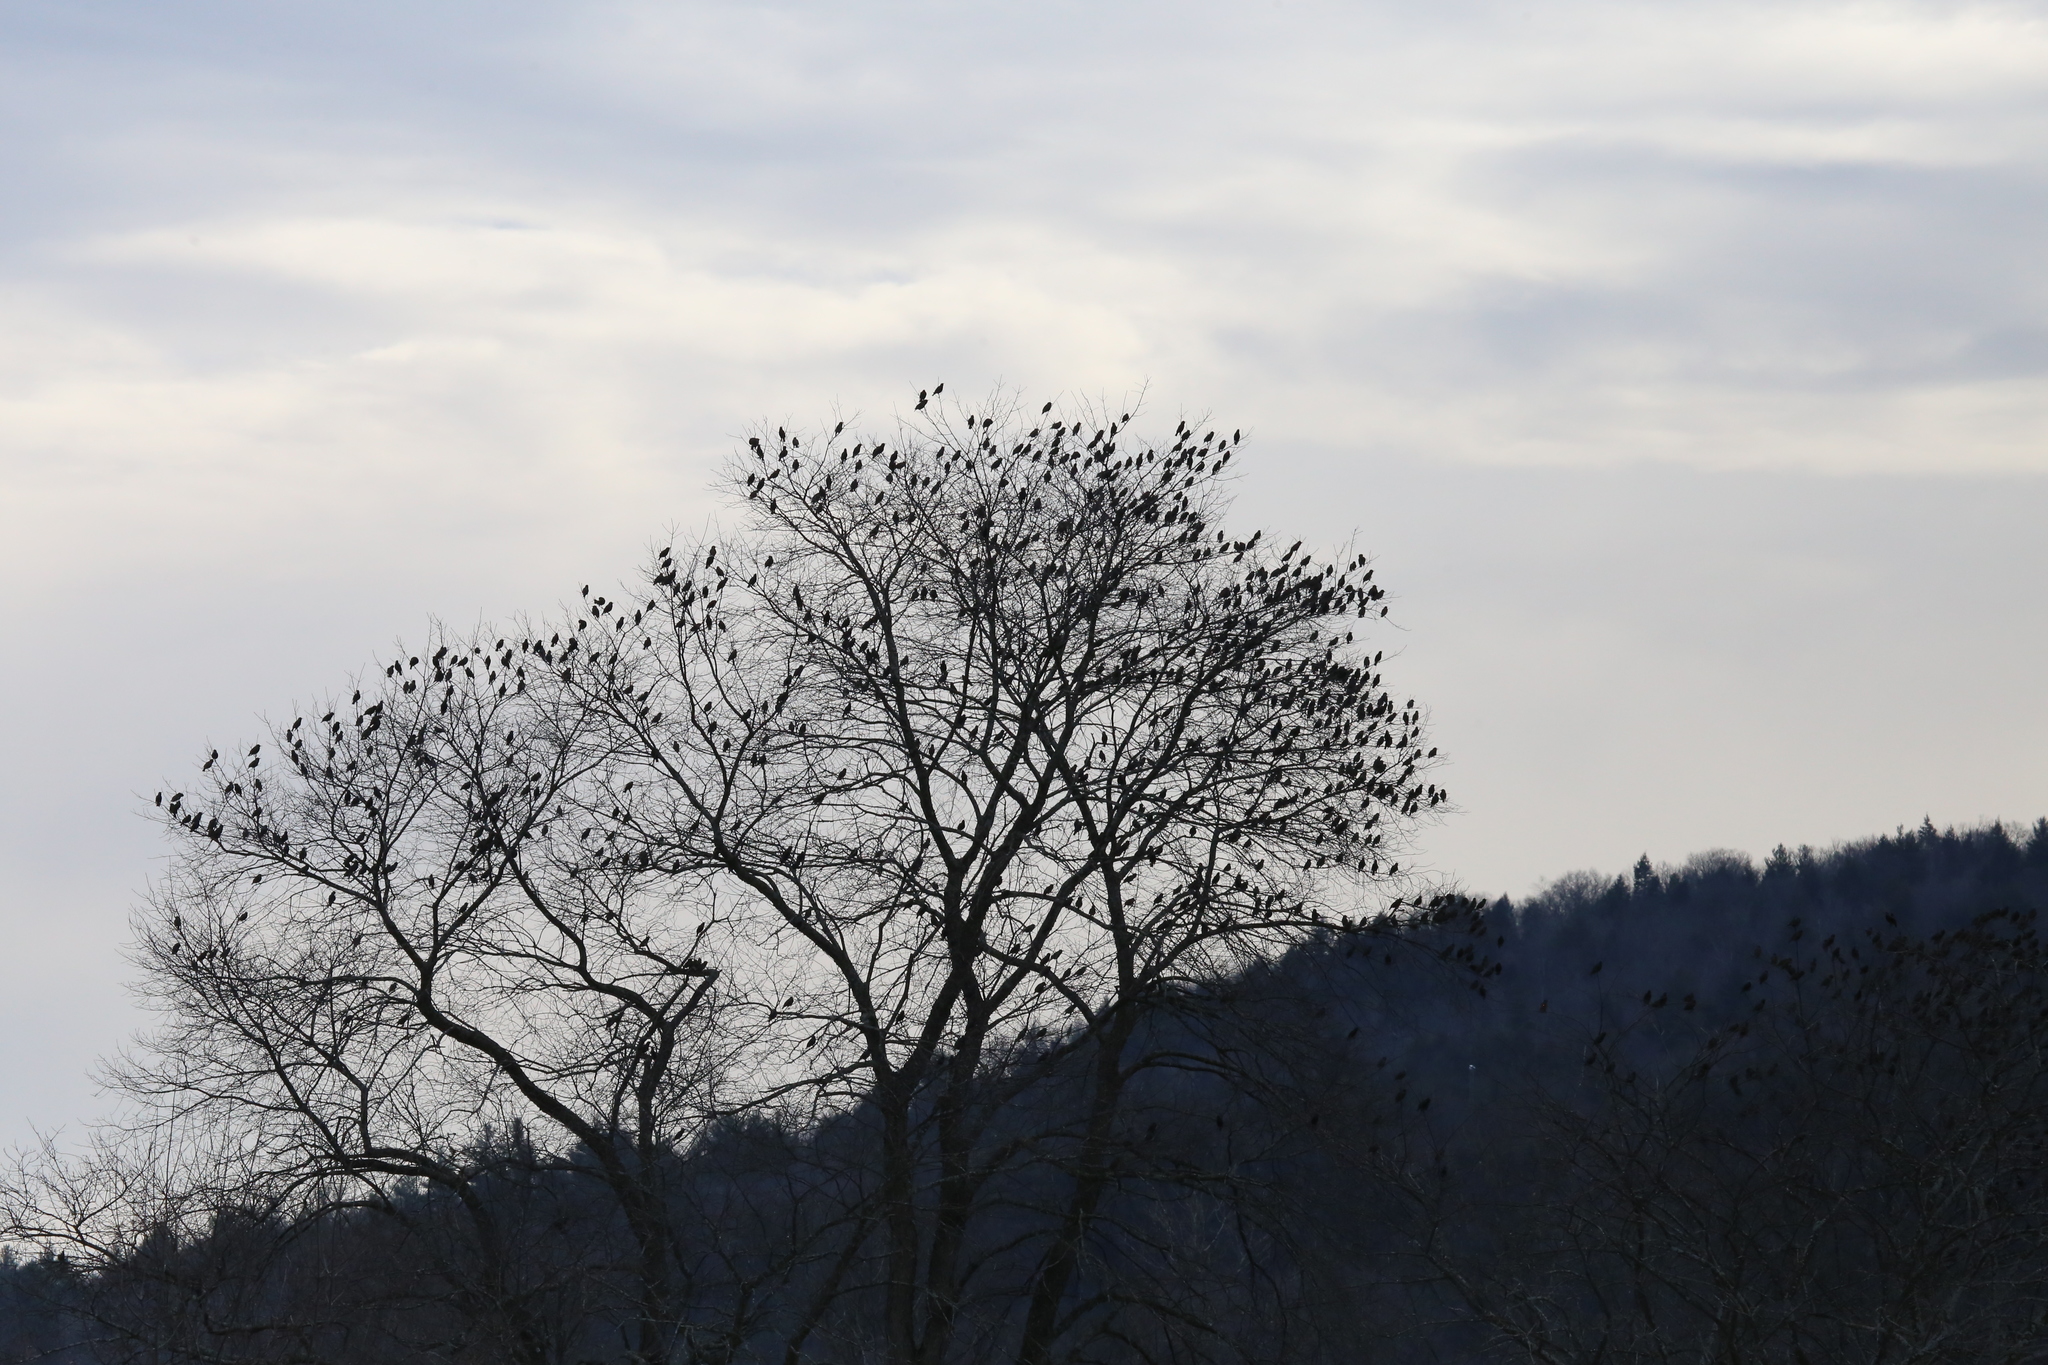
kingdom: Animalia
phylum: Chordata
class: Aves
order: Passeriformes
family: Sturnidae
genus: Sturnus
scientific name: Sturnus vulgaris
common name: Common starling
